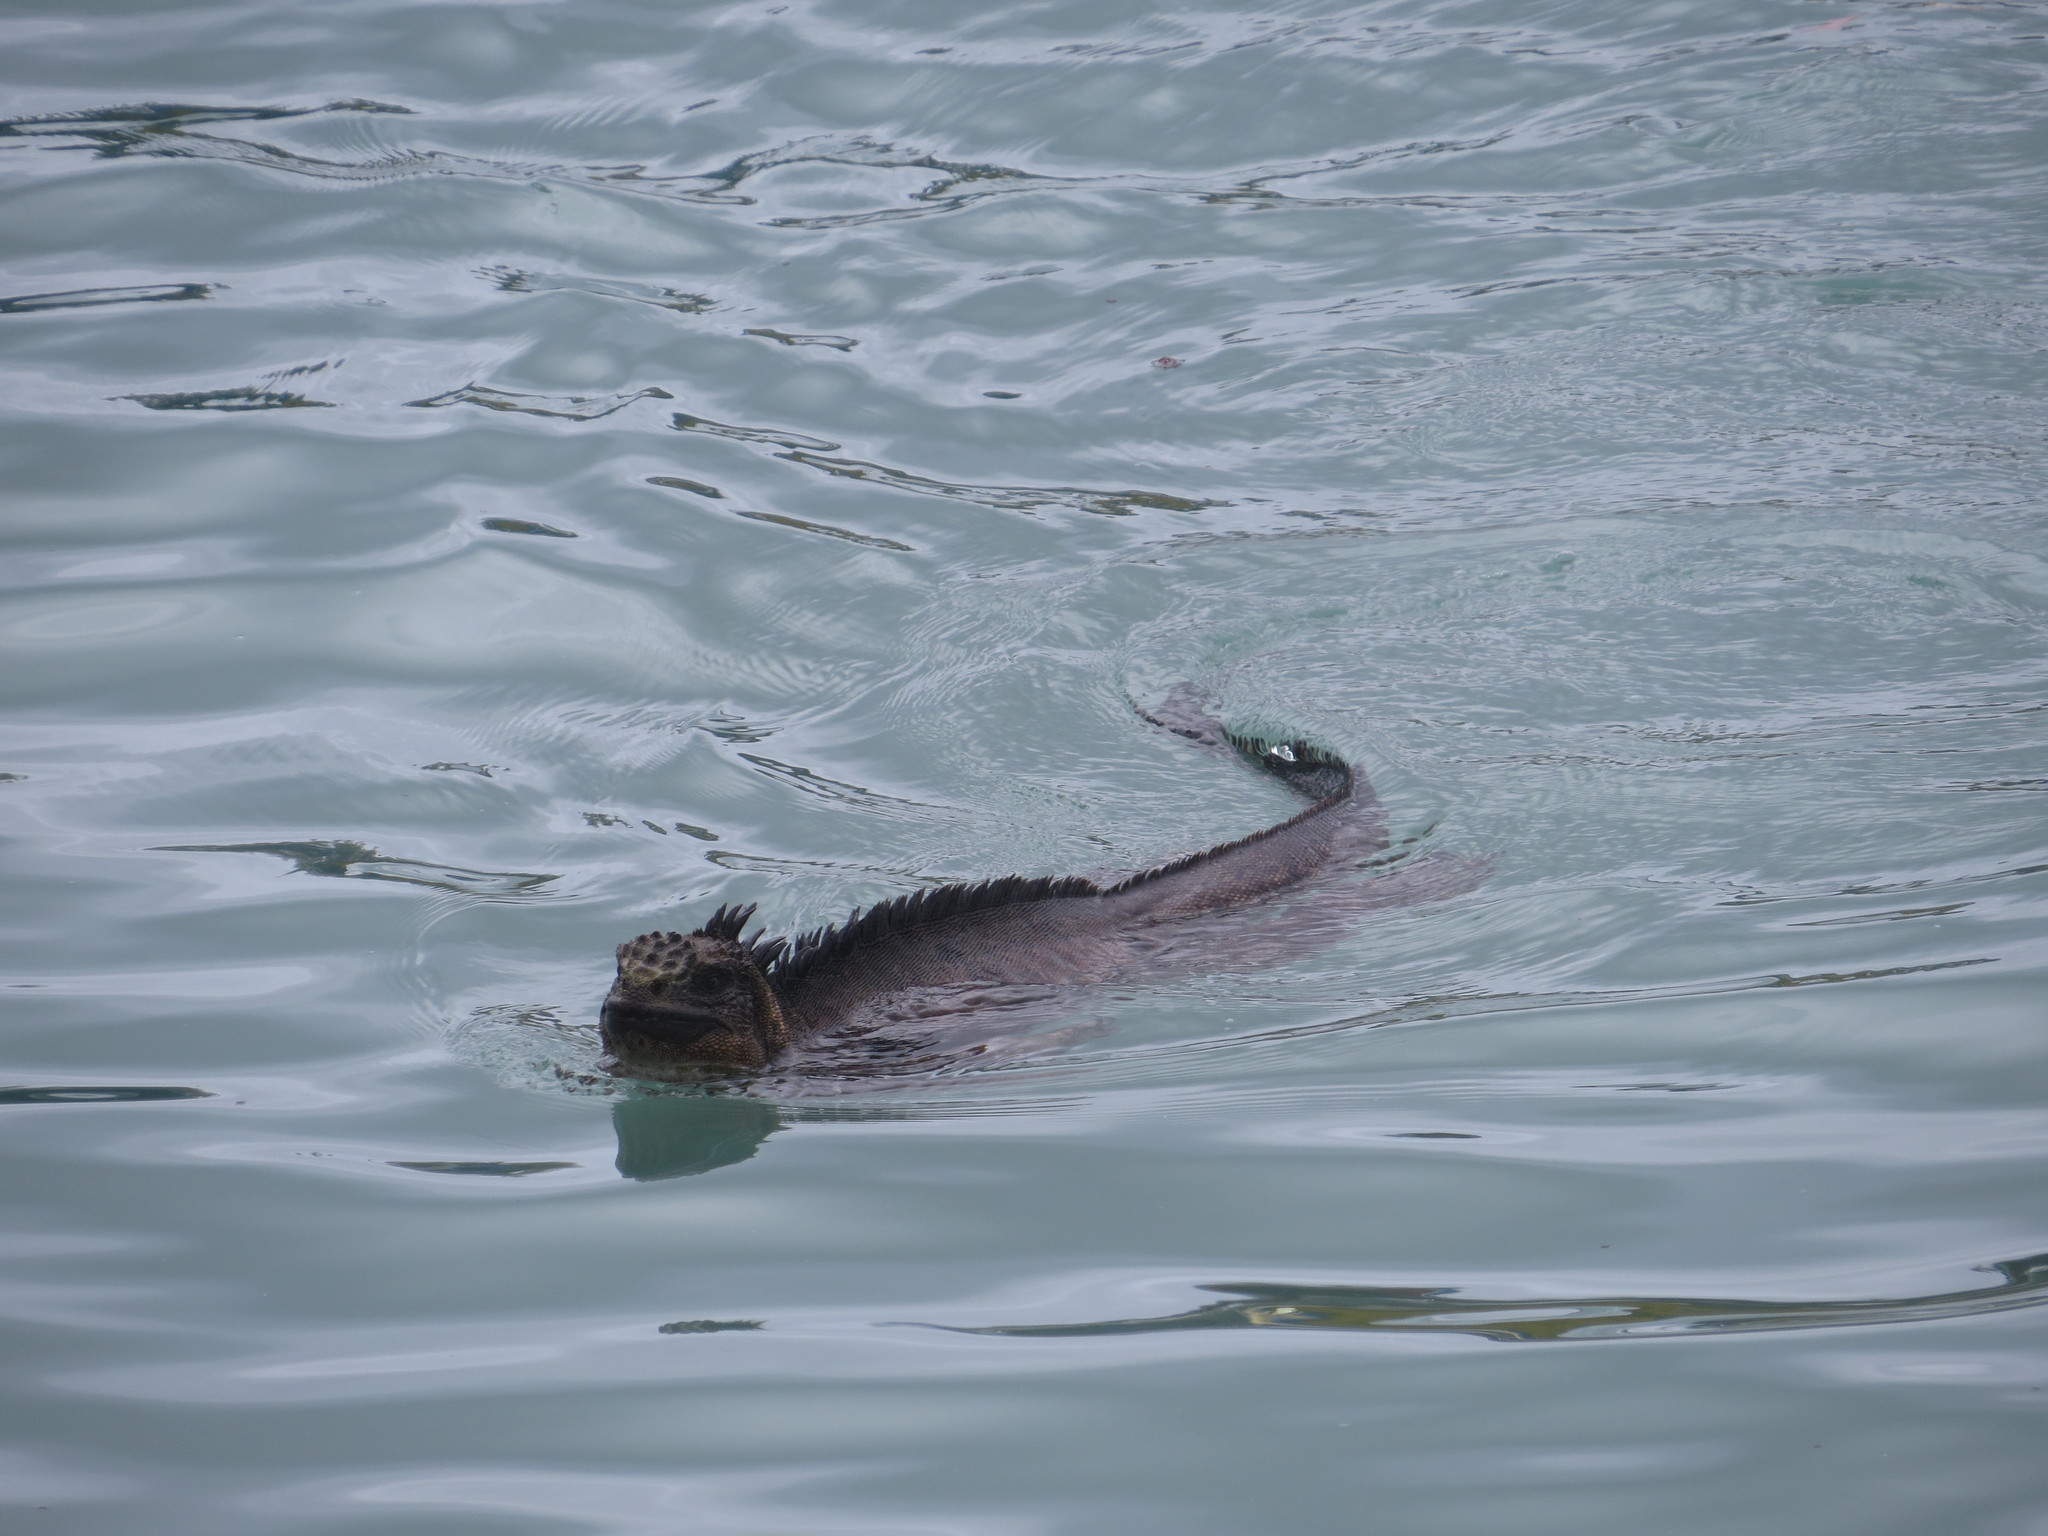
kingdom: Animalia
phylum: Chordata
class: Squamata
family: Iguanidae
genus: Amblyrhynchus
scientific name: Amblyrhynchus cristatus
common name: Marine iguana
